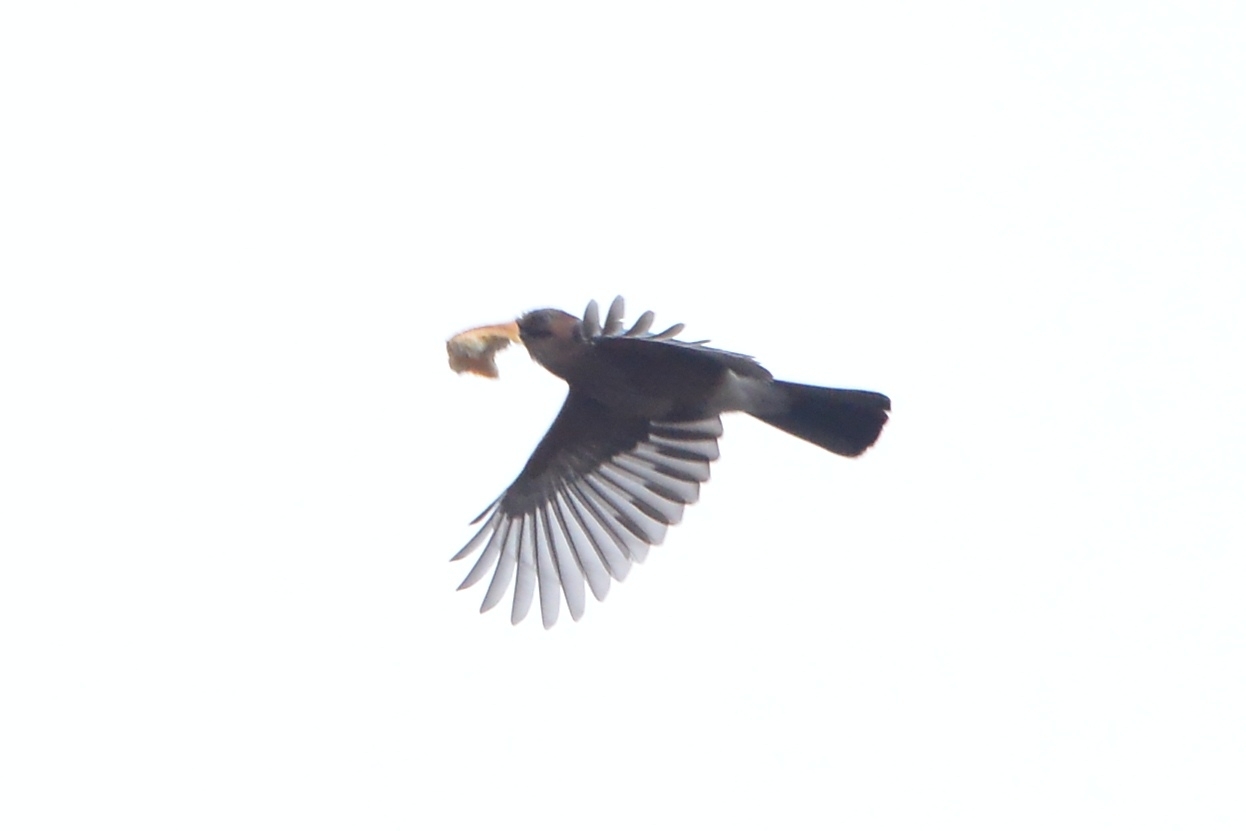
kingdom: Animalia
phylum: Chordata
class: Aves
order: Passeriformes
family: Corvidae
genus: Garrulus
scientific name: Garrulus glandarius
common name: Eurasian jay
